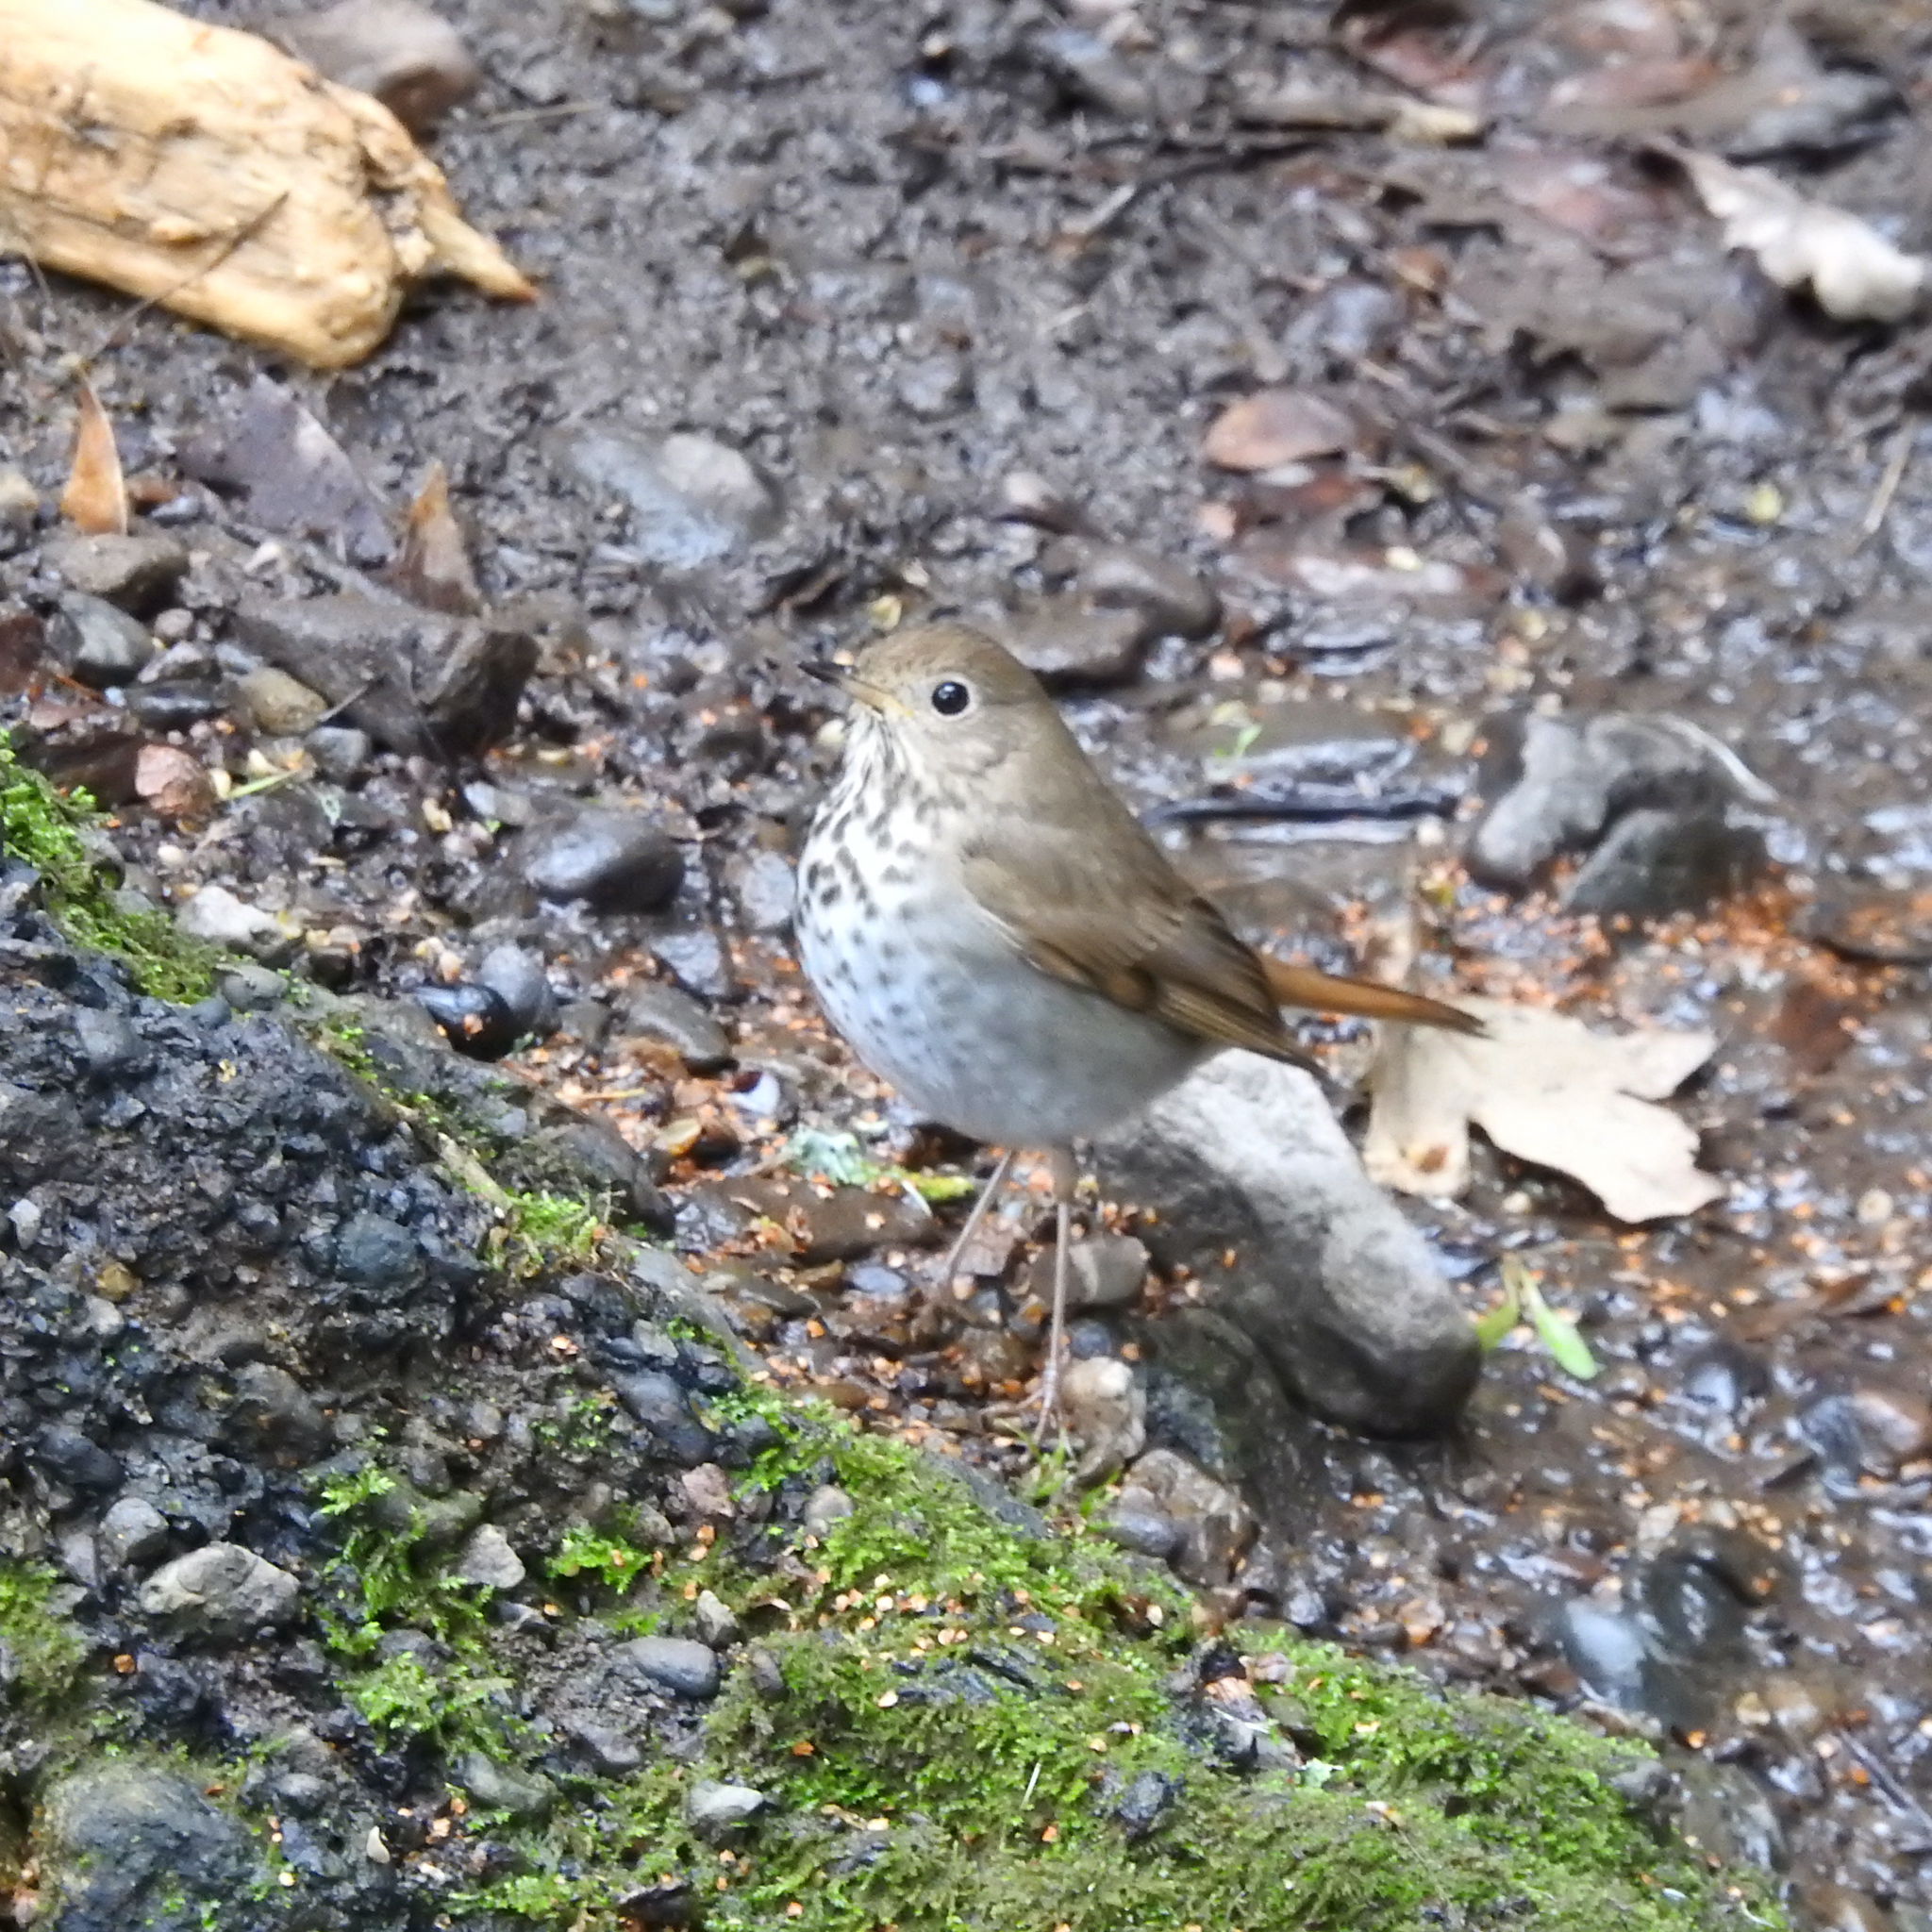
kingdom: Animalia
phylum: Chordata
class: Aves
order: Passeriformes
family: Turdidae
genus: Catharus
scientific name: Catharus guttatus
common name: Hermit thrush
